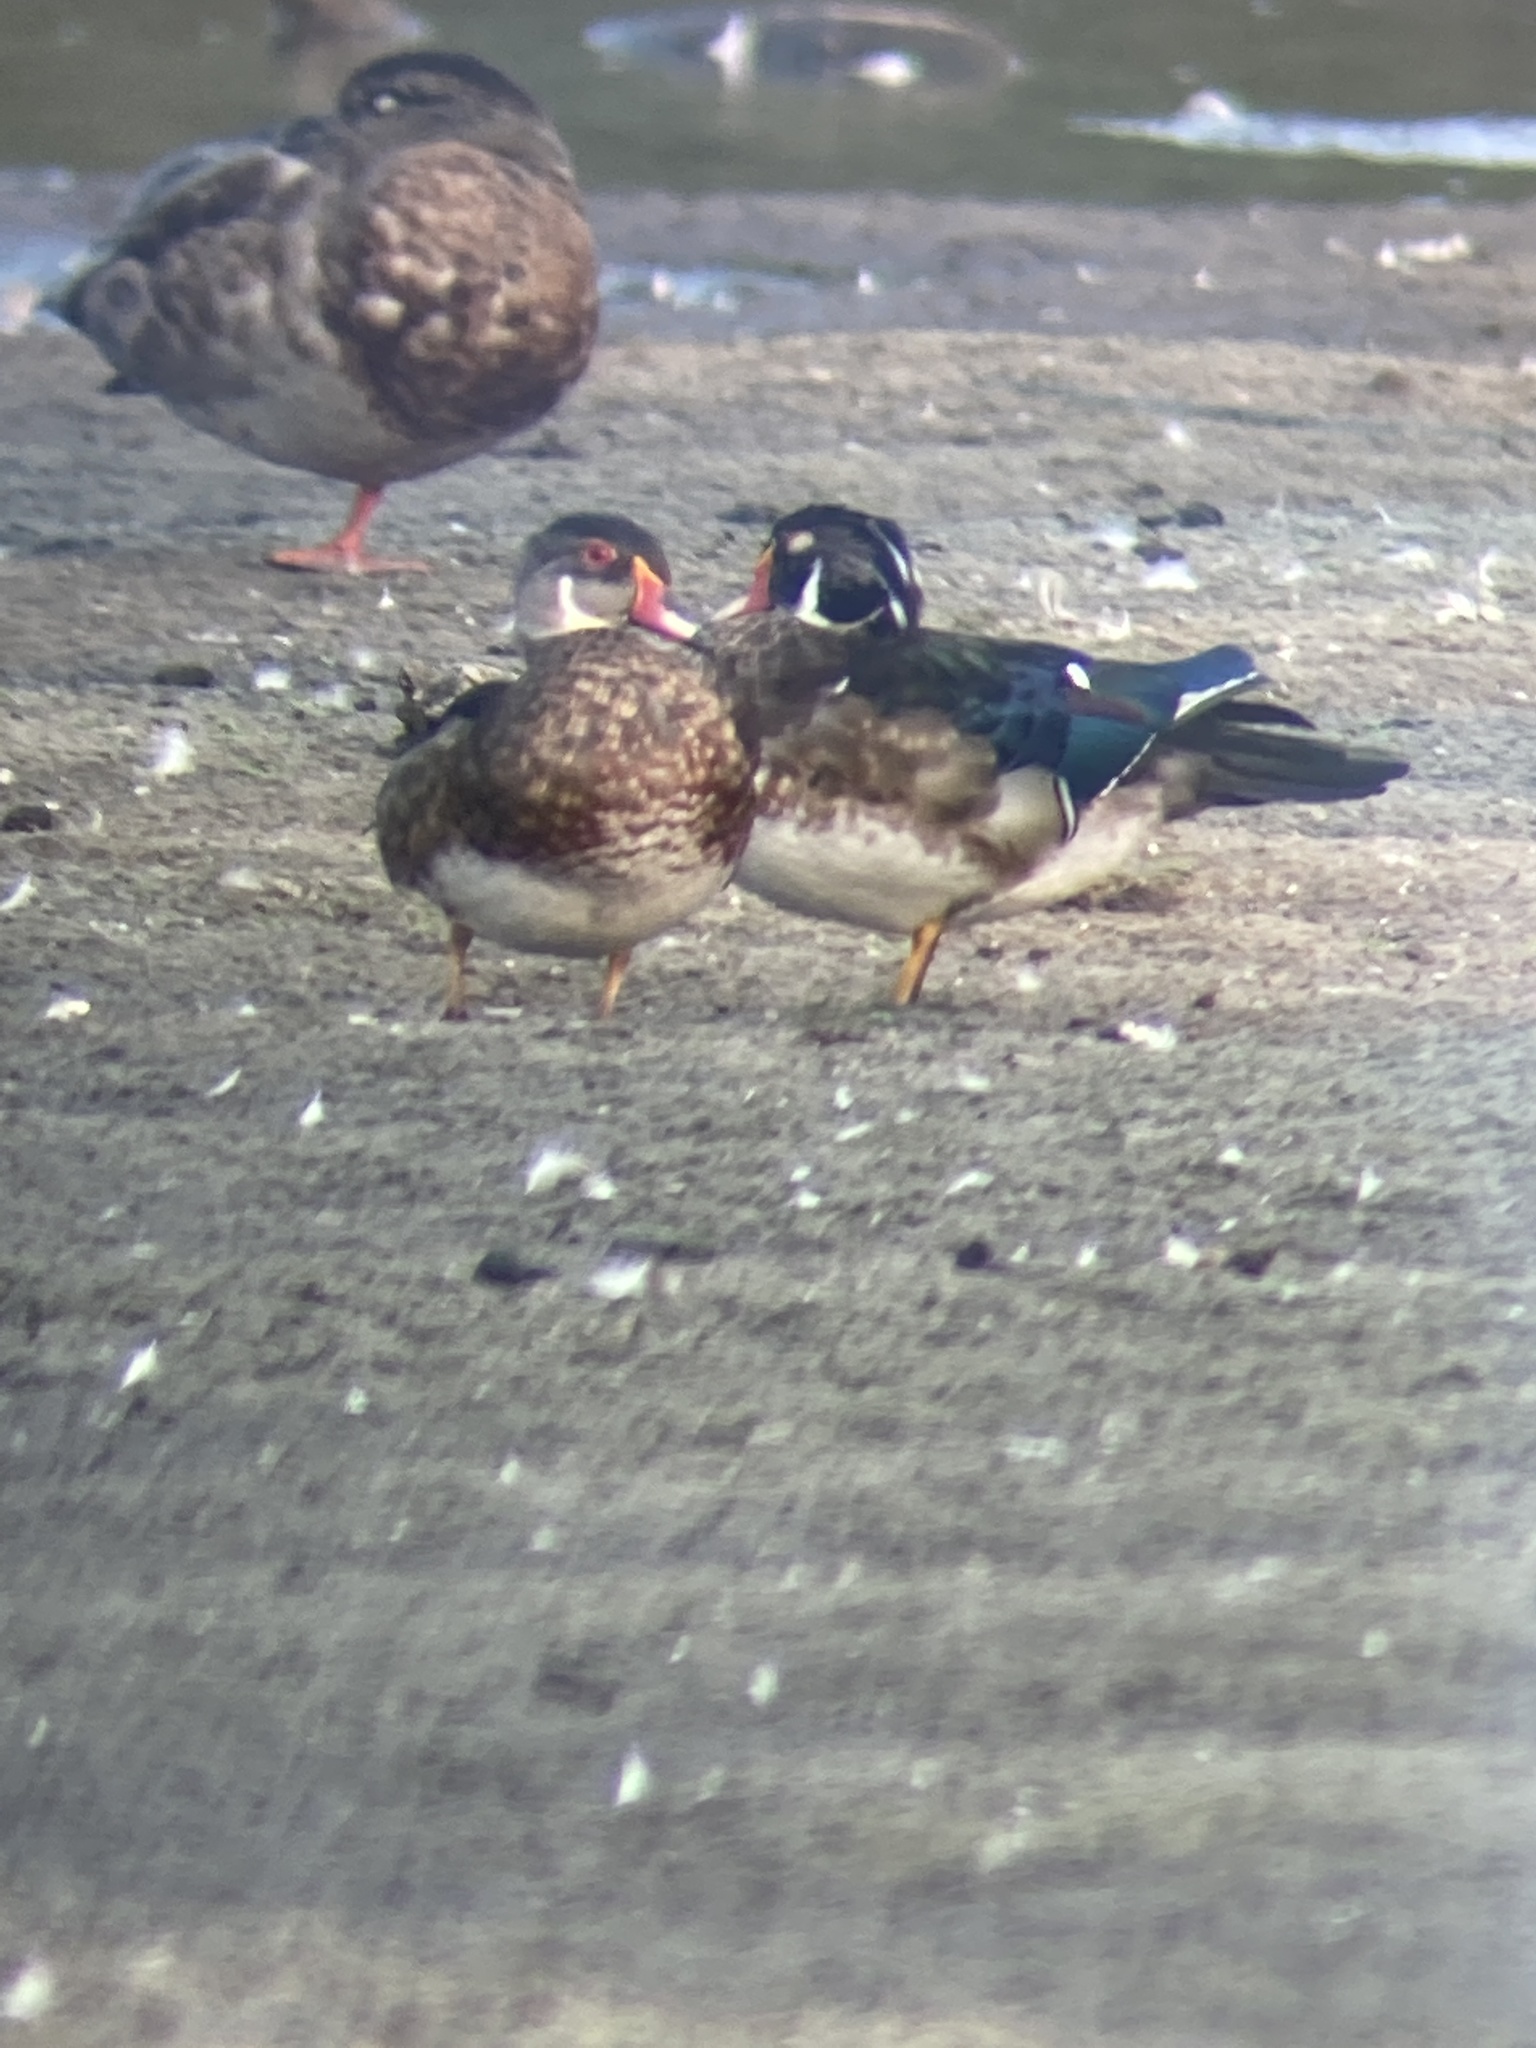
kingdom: Animalia
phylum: Chordata
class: Aves
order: Anseriformes
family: Anatidae
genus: Aix
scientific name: Aix sponsa
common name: Wood duck
